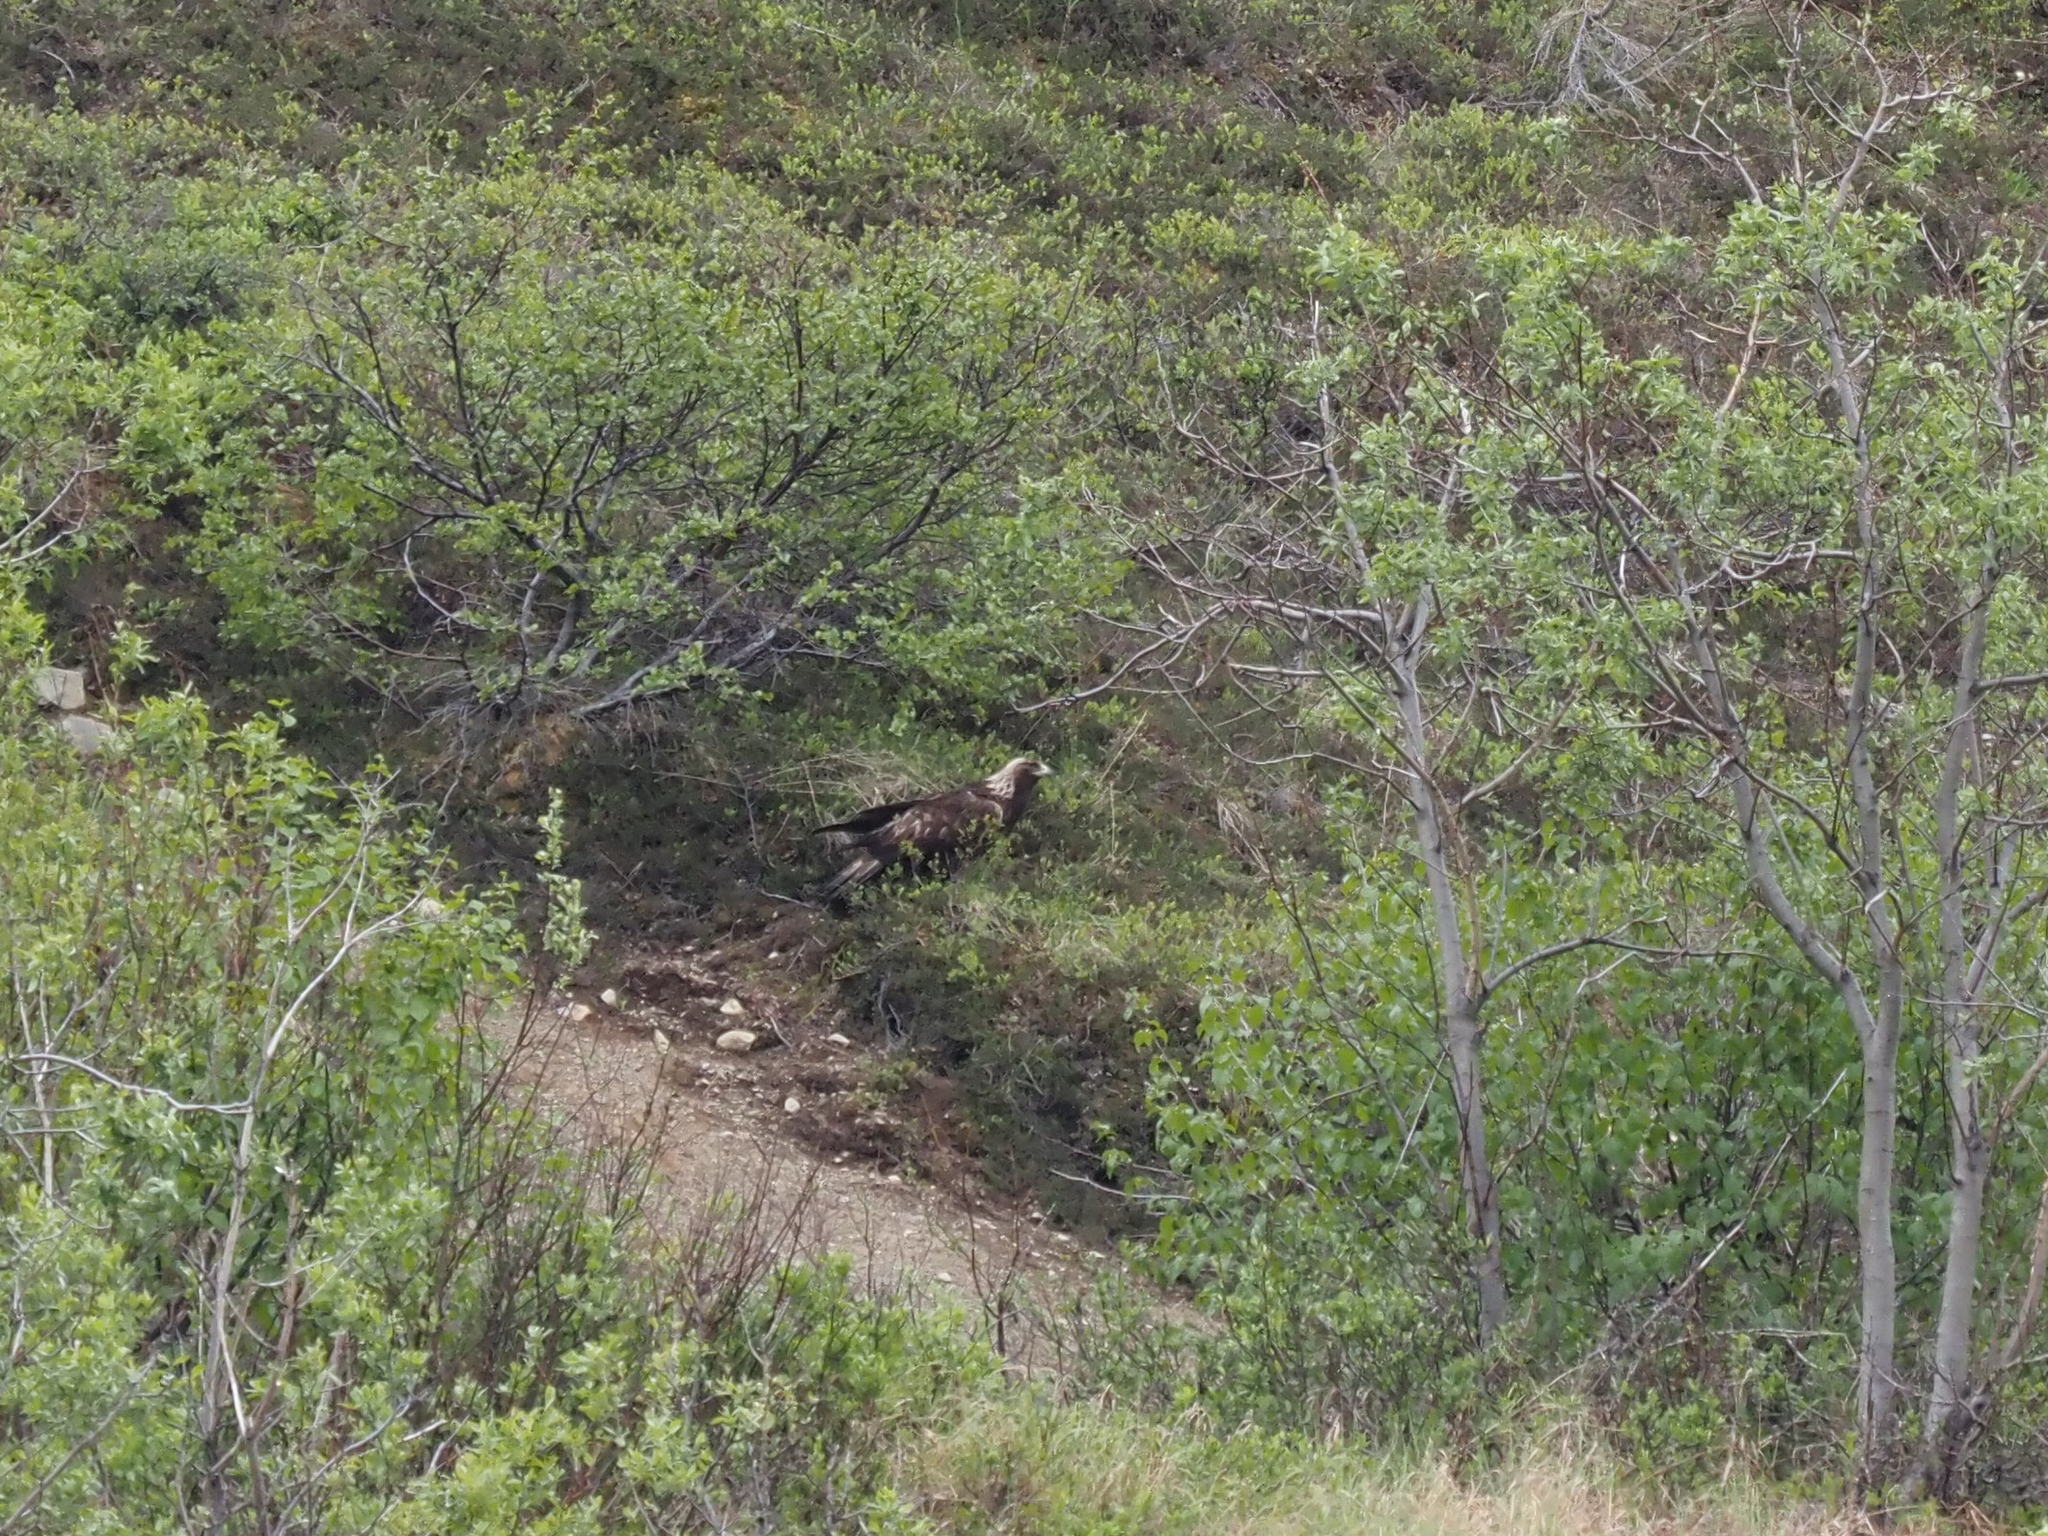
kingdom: Animalia
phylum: Chordata
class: Aves
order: Accipitriformes
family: Accipitridae
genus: Aquila
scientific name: Aquila chrysaetos
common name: Golden eagle
